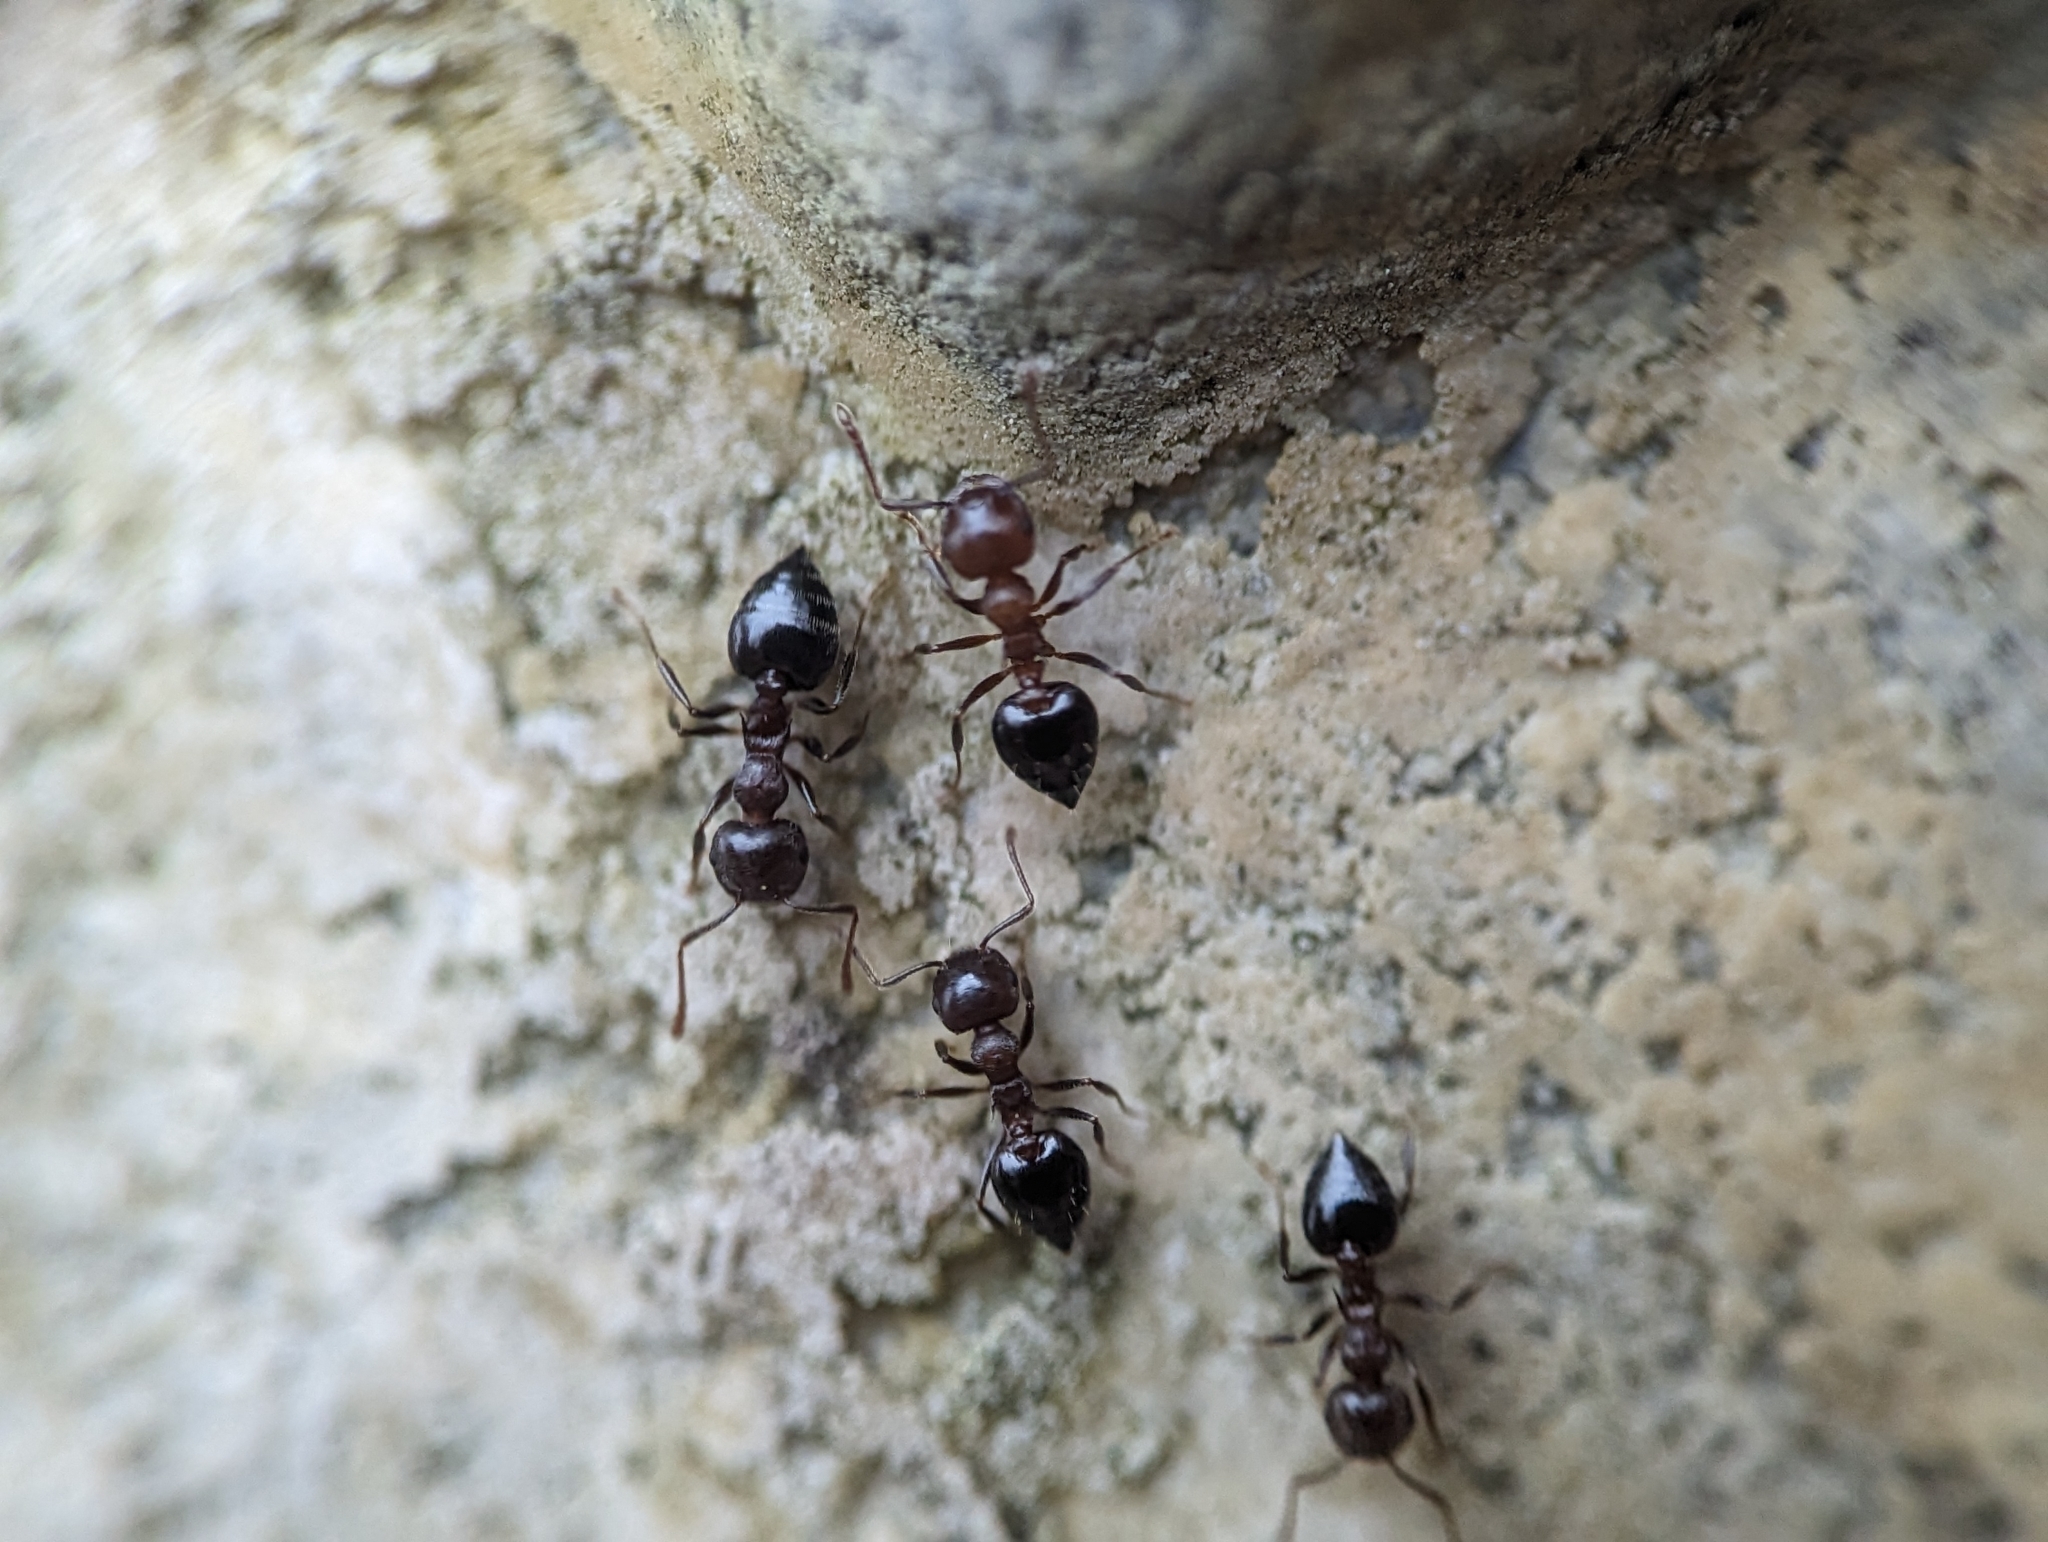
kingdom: Animalia
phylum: Arthropoda
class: Insecta
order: Hymenoptera
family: Formicidae
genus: Crematogaster
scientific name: Crematogaster
